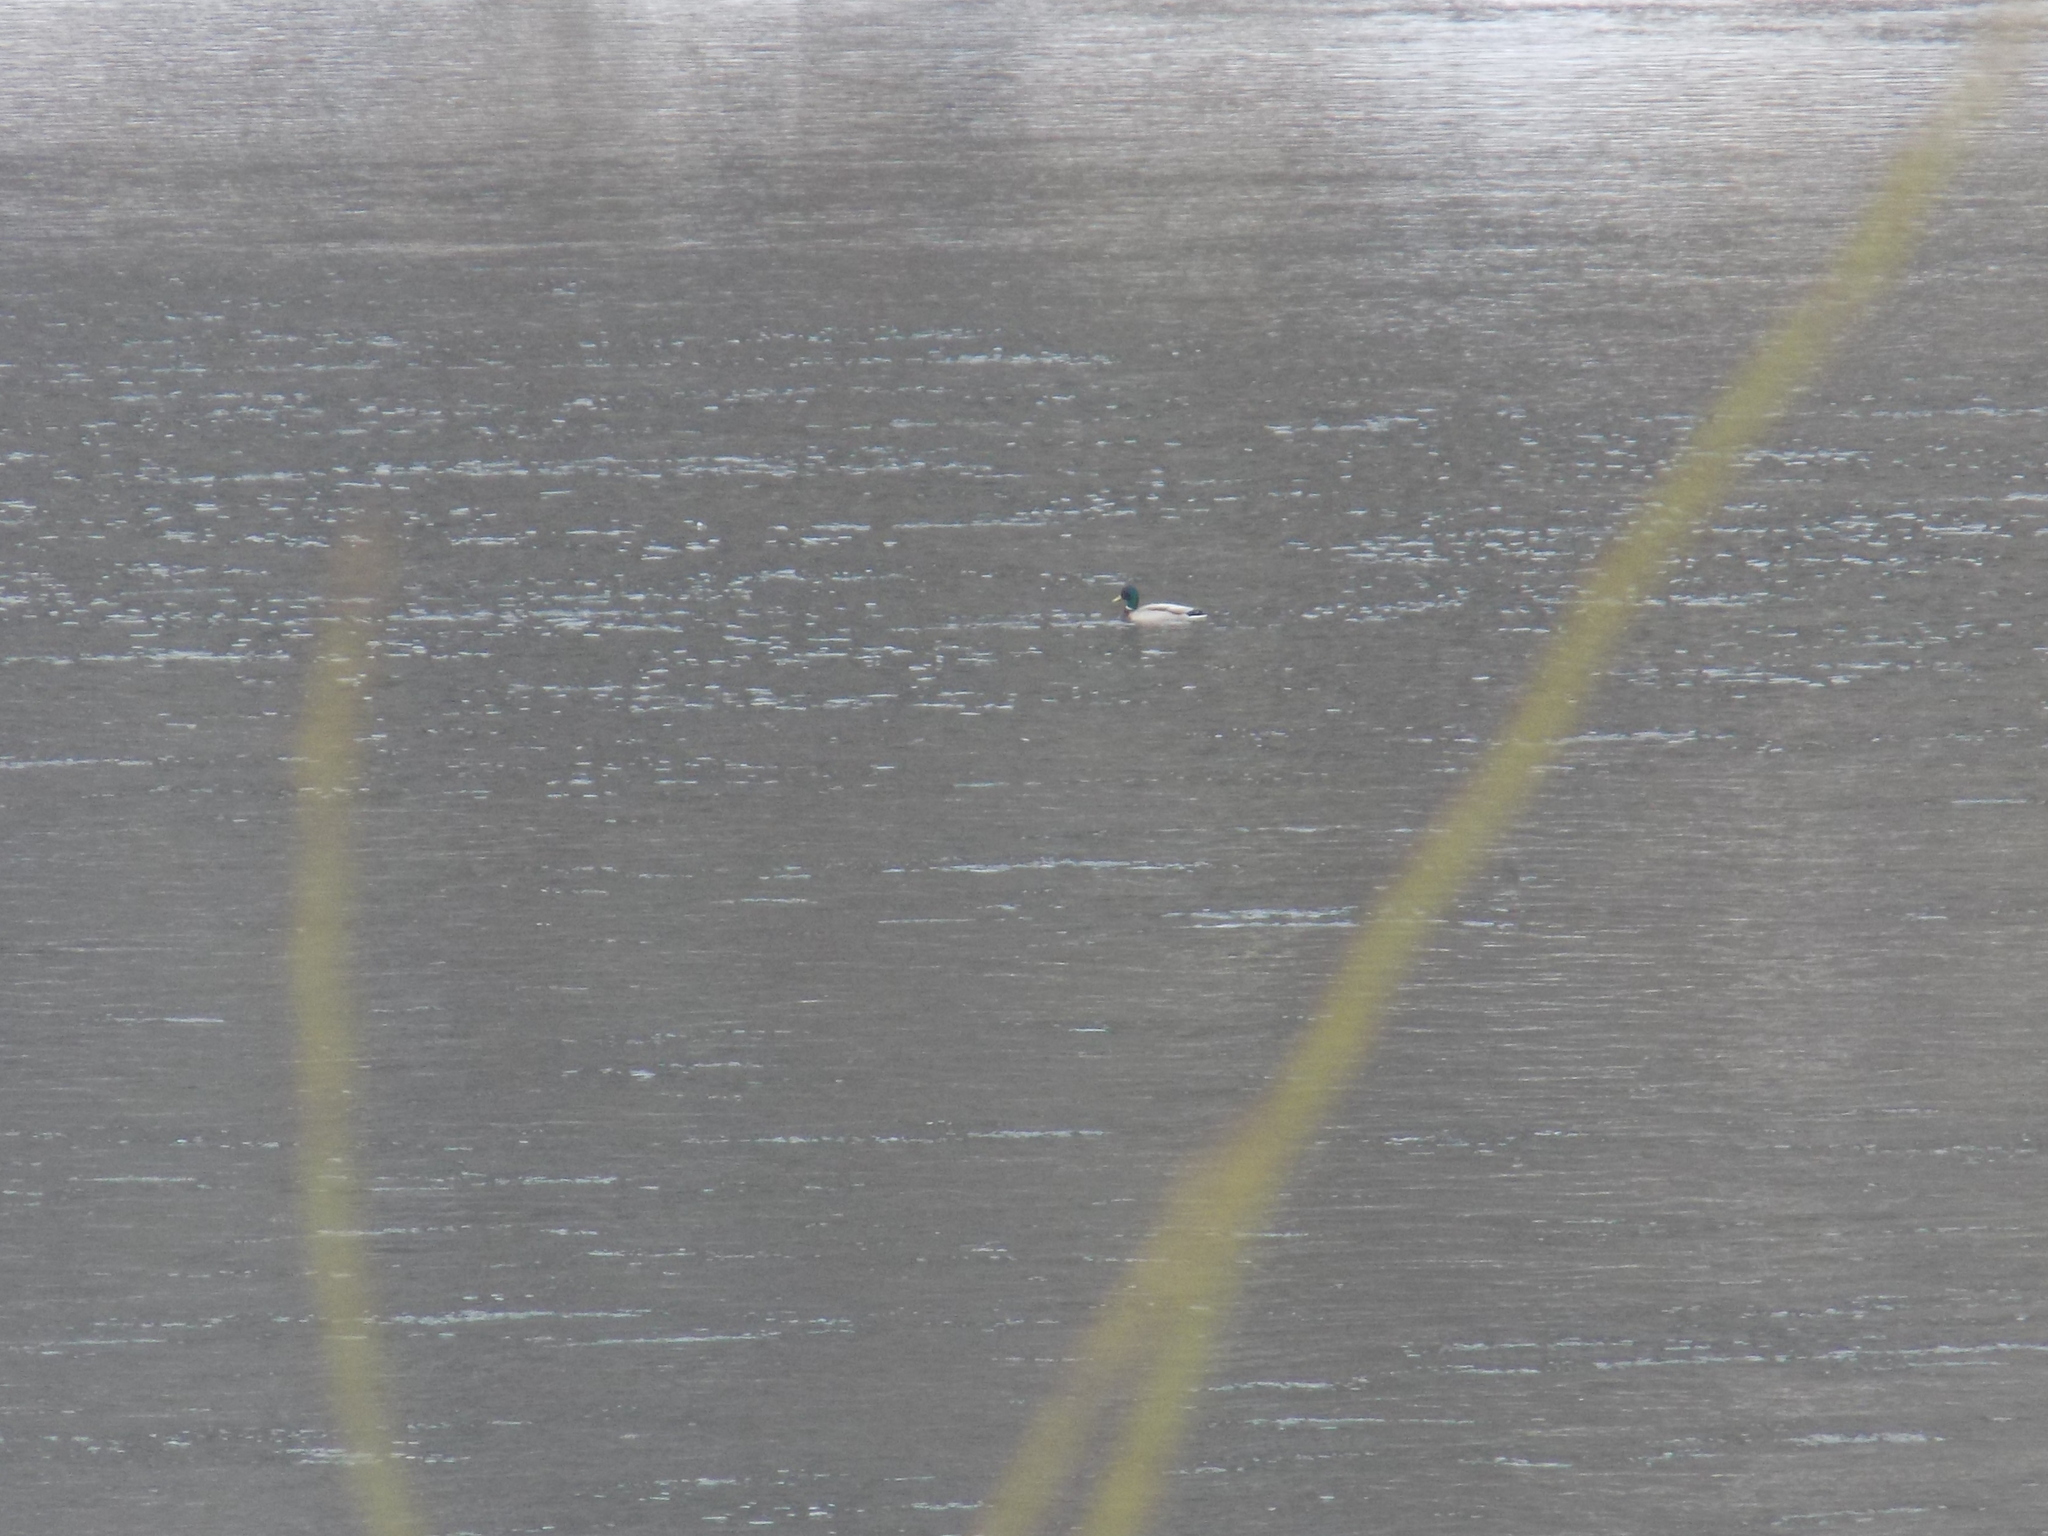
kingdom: Animalia
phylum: Chordata
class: Aves
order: Anseriformes
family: Anatidae
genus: Anas
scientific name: Anas platyrhynchos
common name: Mallard
